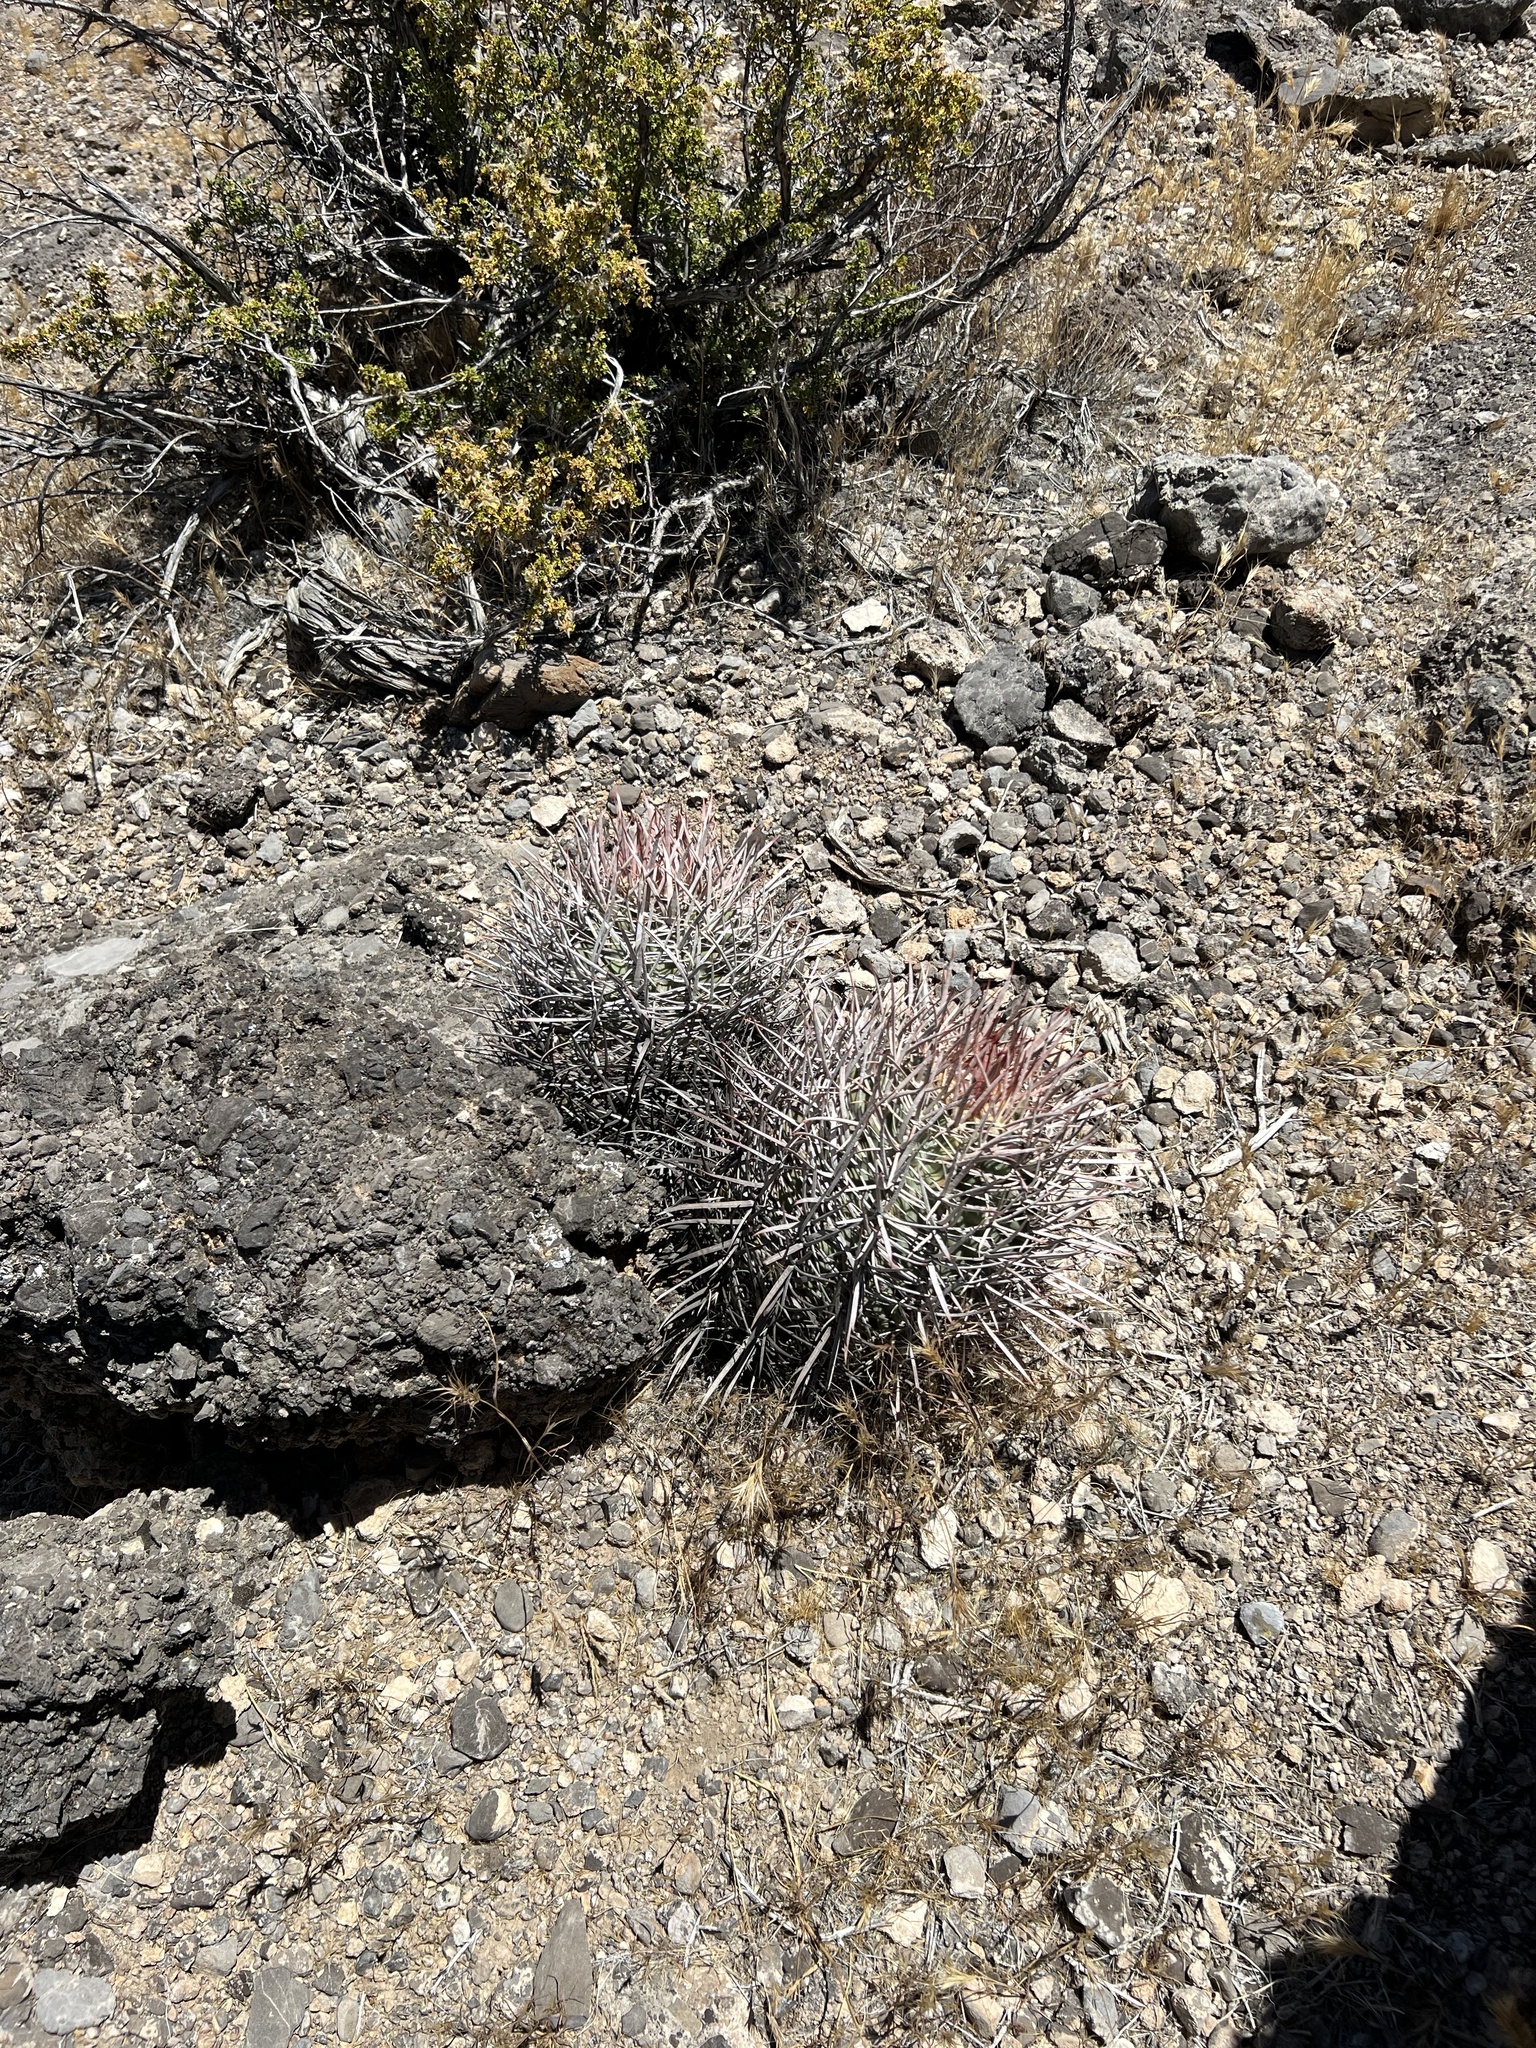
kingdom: Plantae
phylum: Tracheophyta
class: Magnoliopsida
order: Caryophyllales
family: Cactaceae
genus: Echinocactus
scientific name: Echinocactus polycephalus
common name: Cottontop cactus
